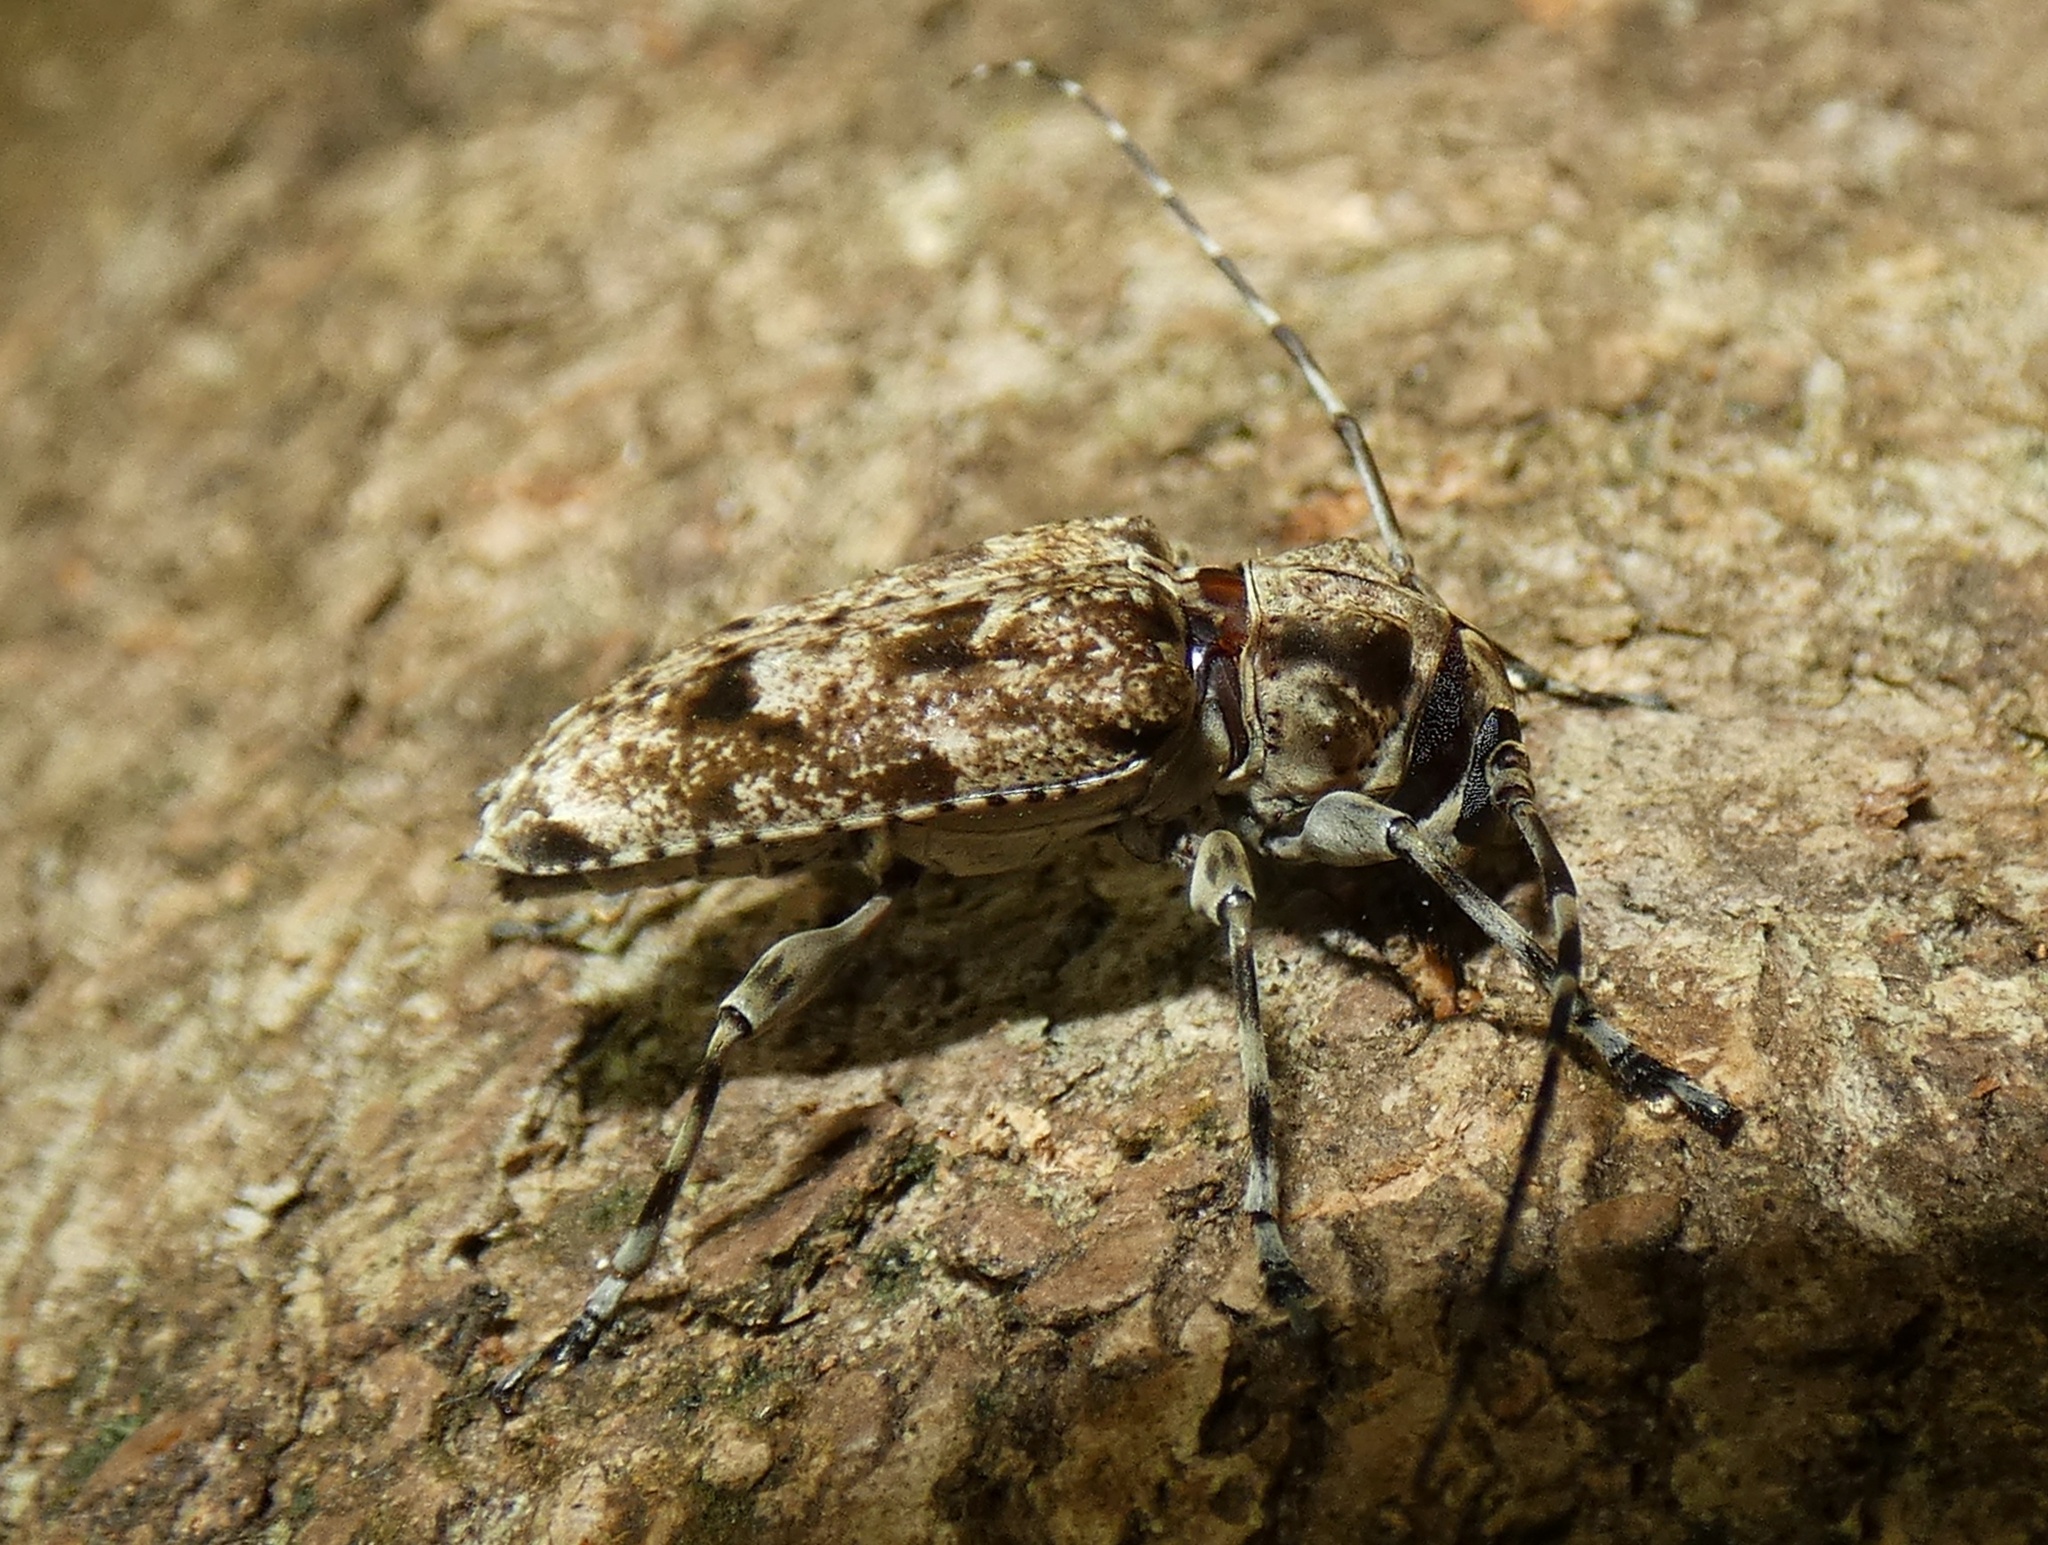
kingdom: Animalia
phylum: Arthropoda
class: Insecta
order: Coleoptera
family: Cerambycidae
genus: Psapharochrus
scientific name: Psapharochrus bivittus
